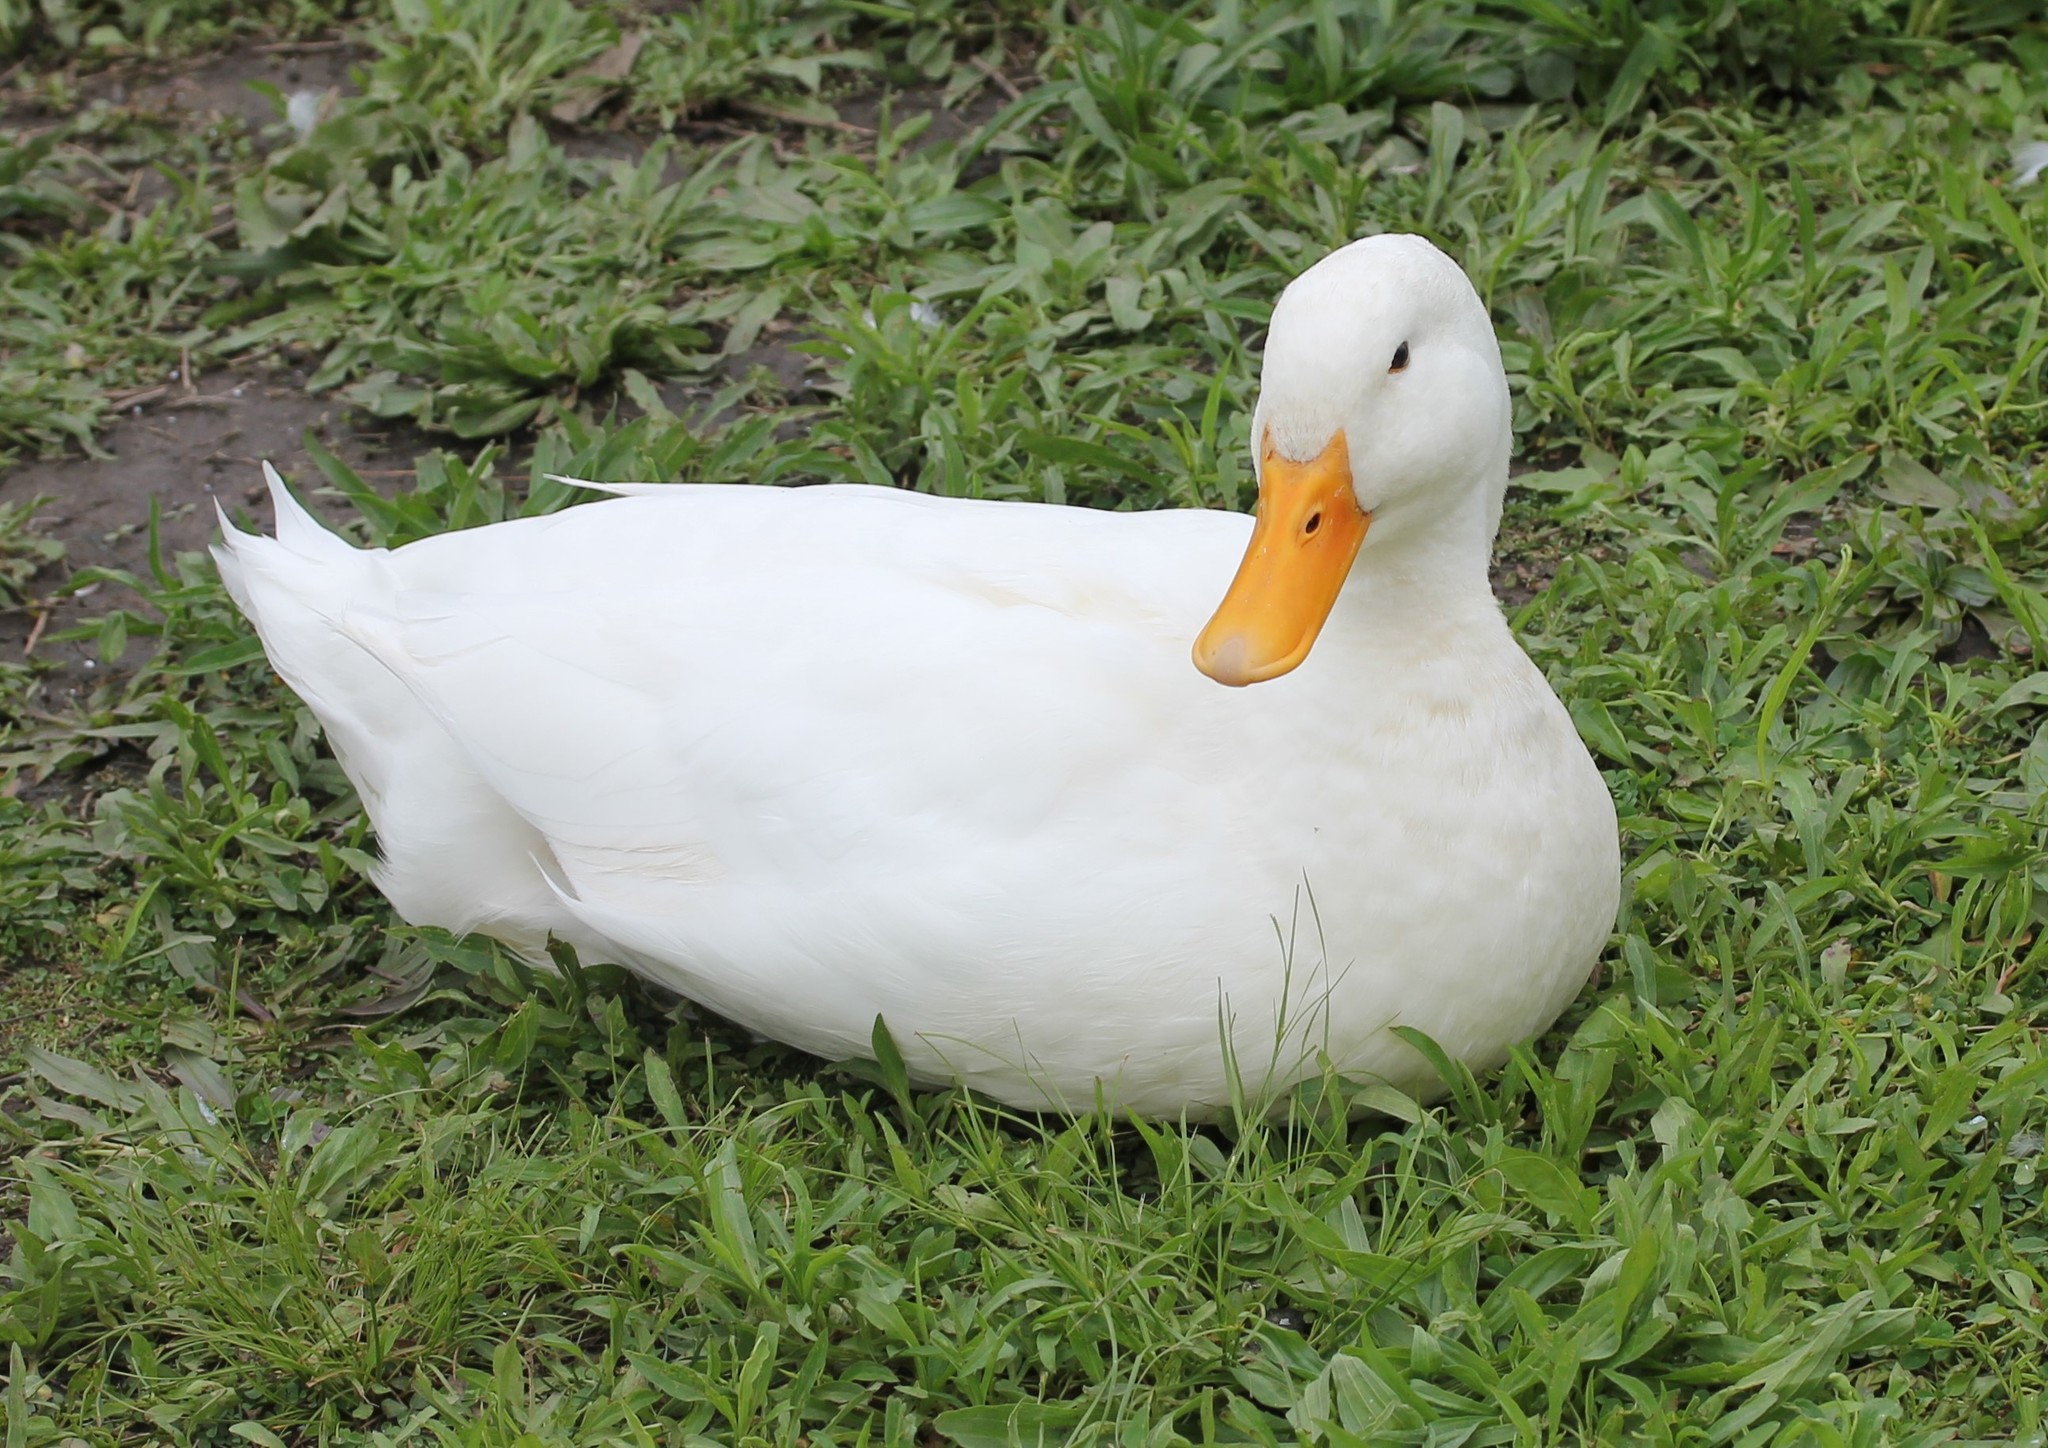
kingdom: Animalia
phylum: Chordata
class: Aves
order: Anseriformes
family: Anatidae
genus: Anas
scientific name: Anas platyrhynchos
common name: Mallard
